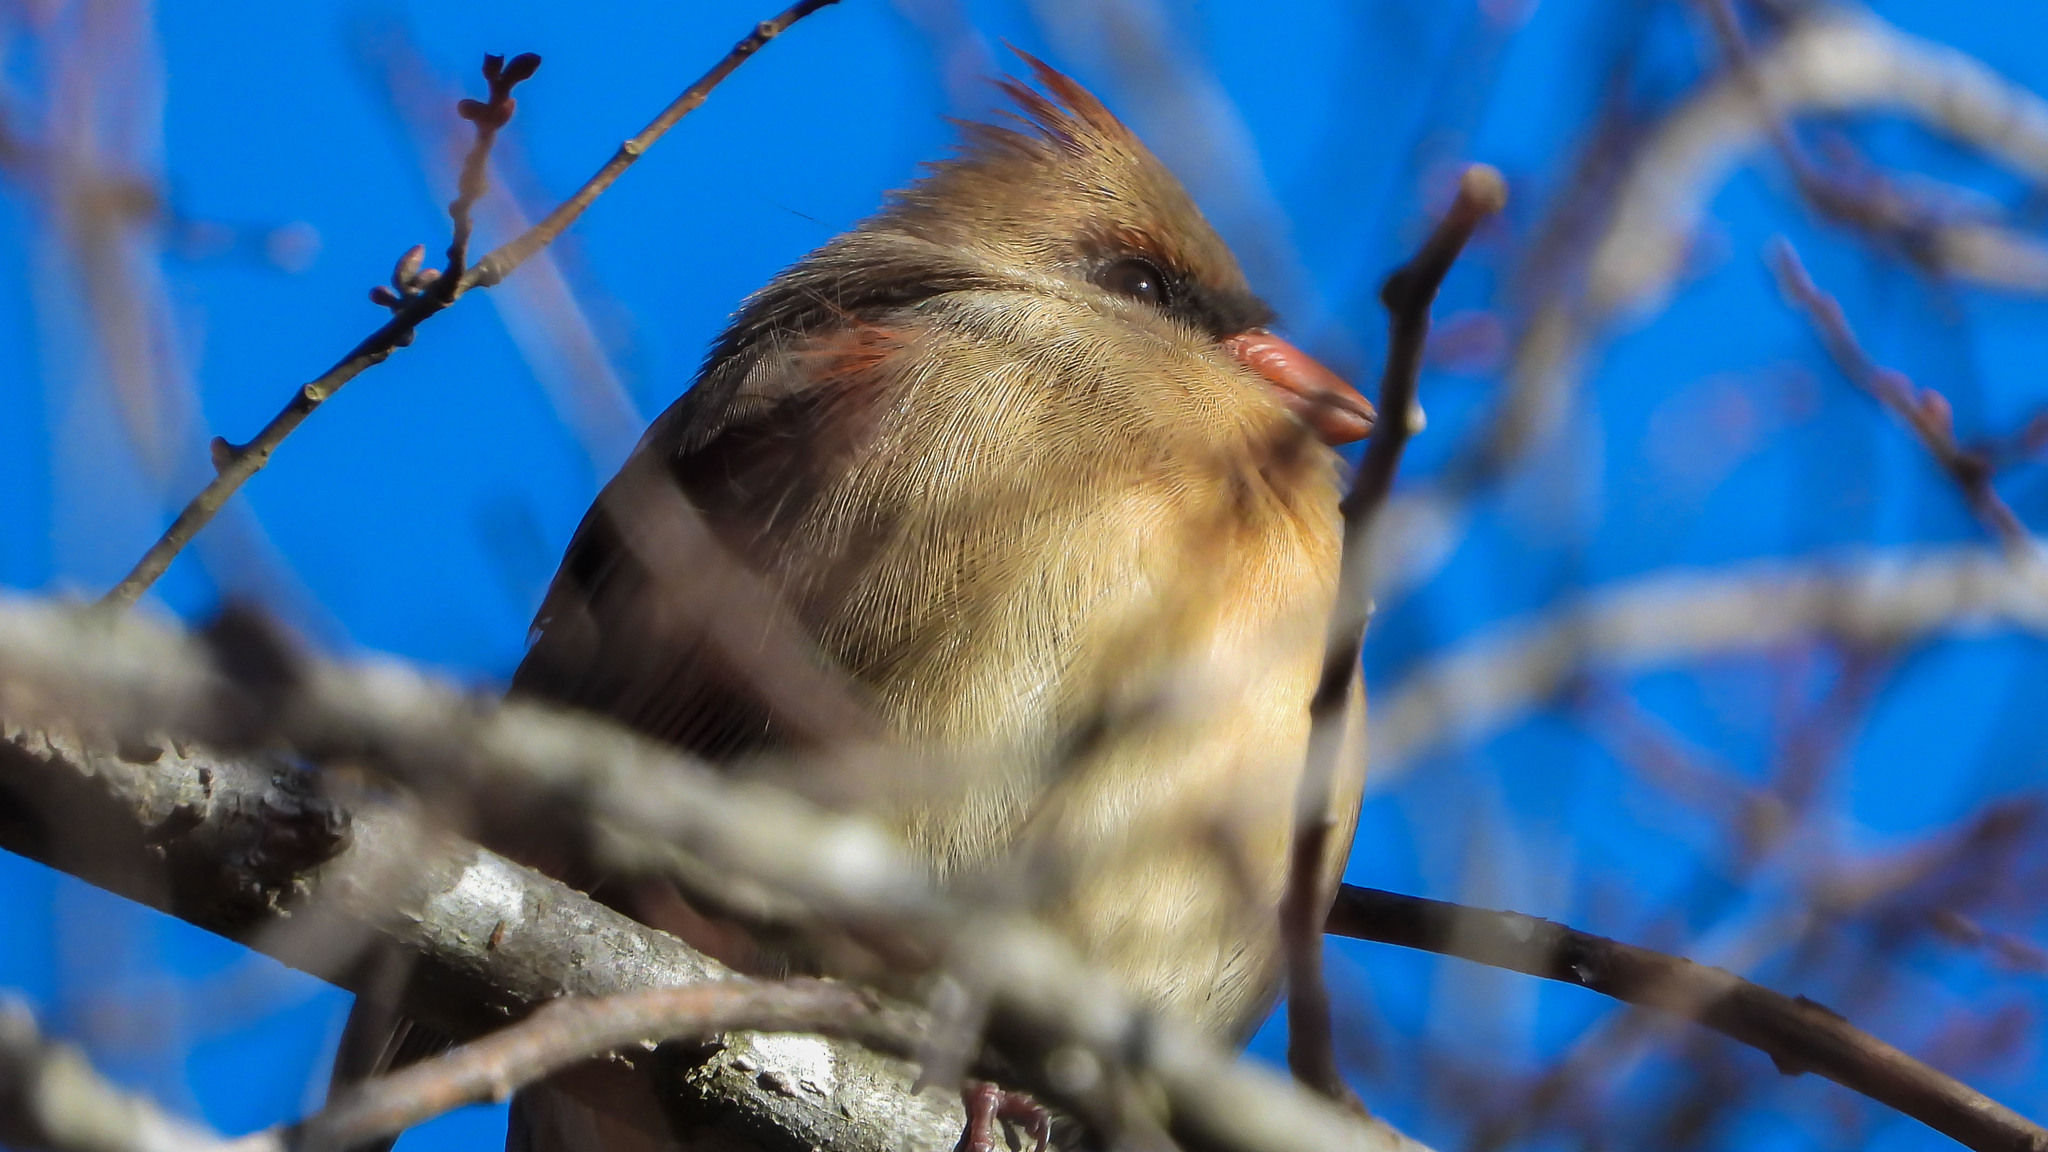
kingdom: Animalia
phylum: Chordata
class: Aves
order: Passeriformes
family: Cardinalidae
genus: Cardinalis
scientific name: Cardinalis cardinalis
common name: Northern cardinal
